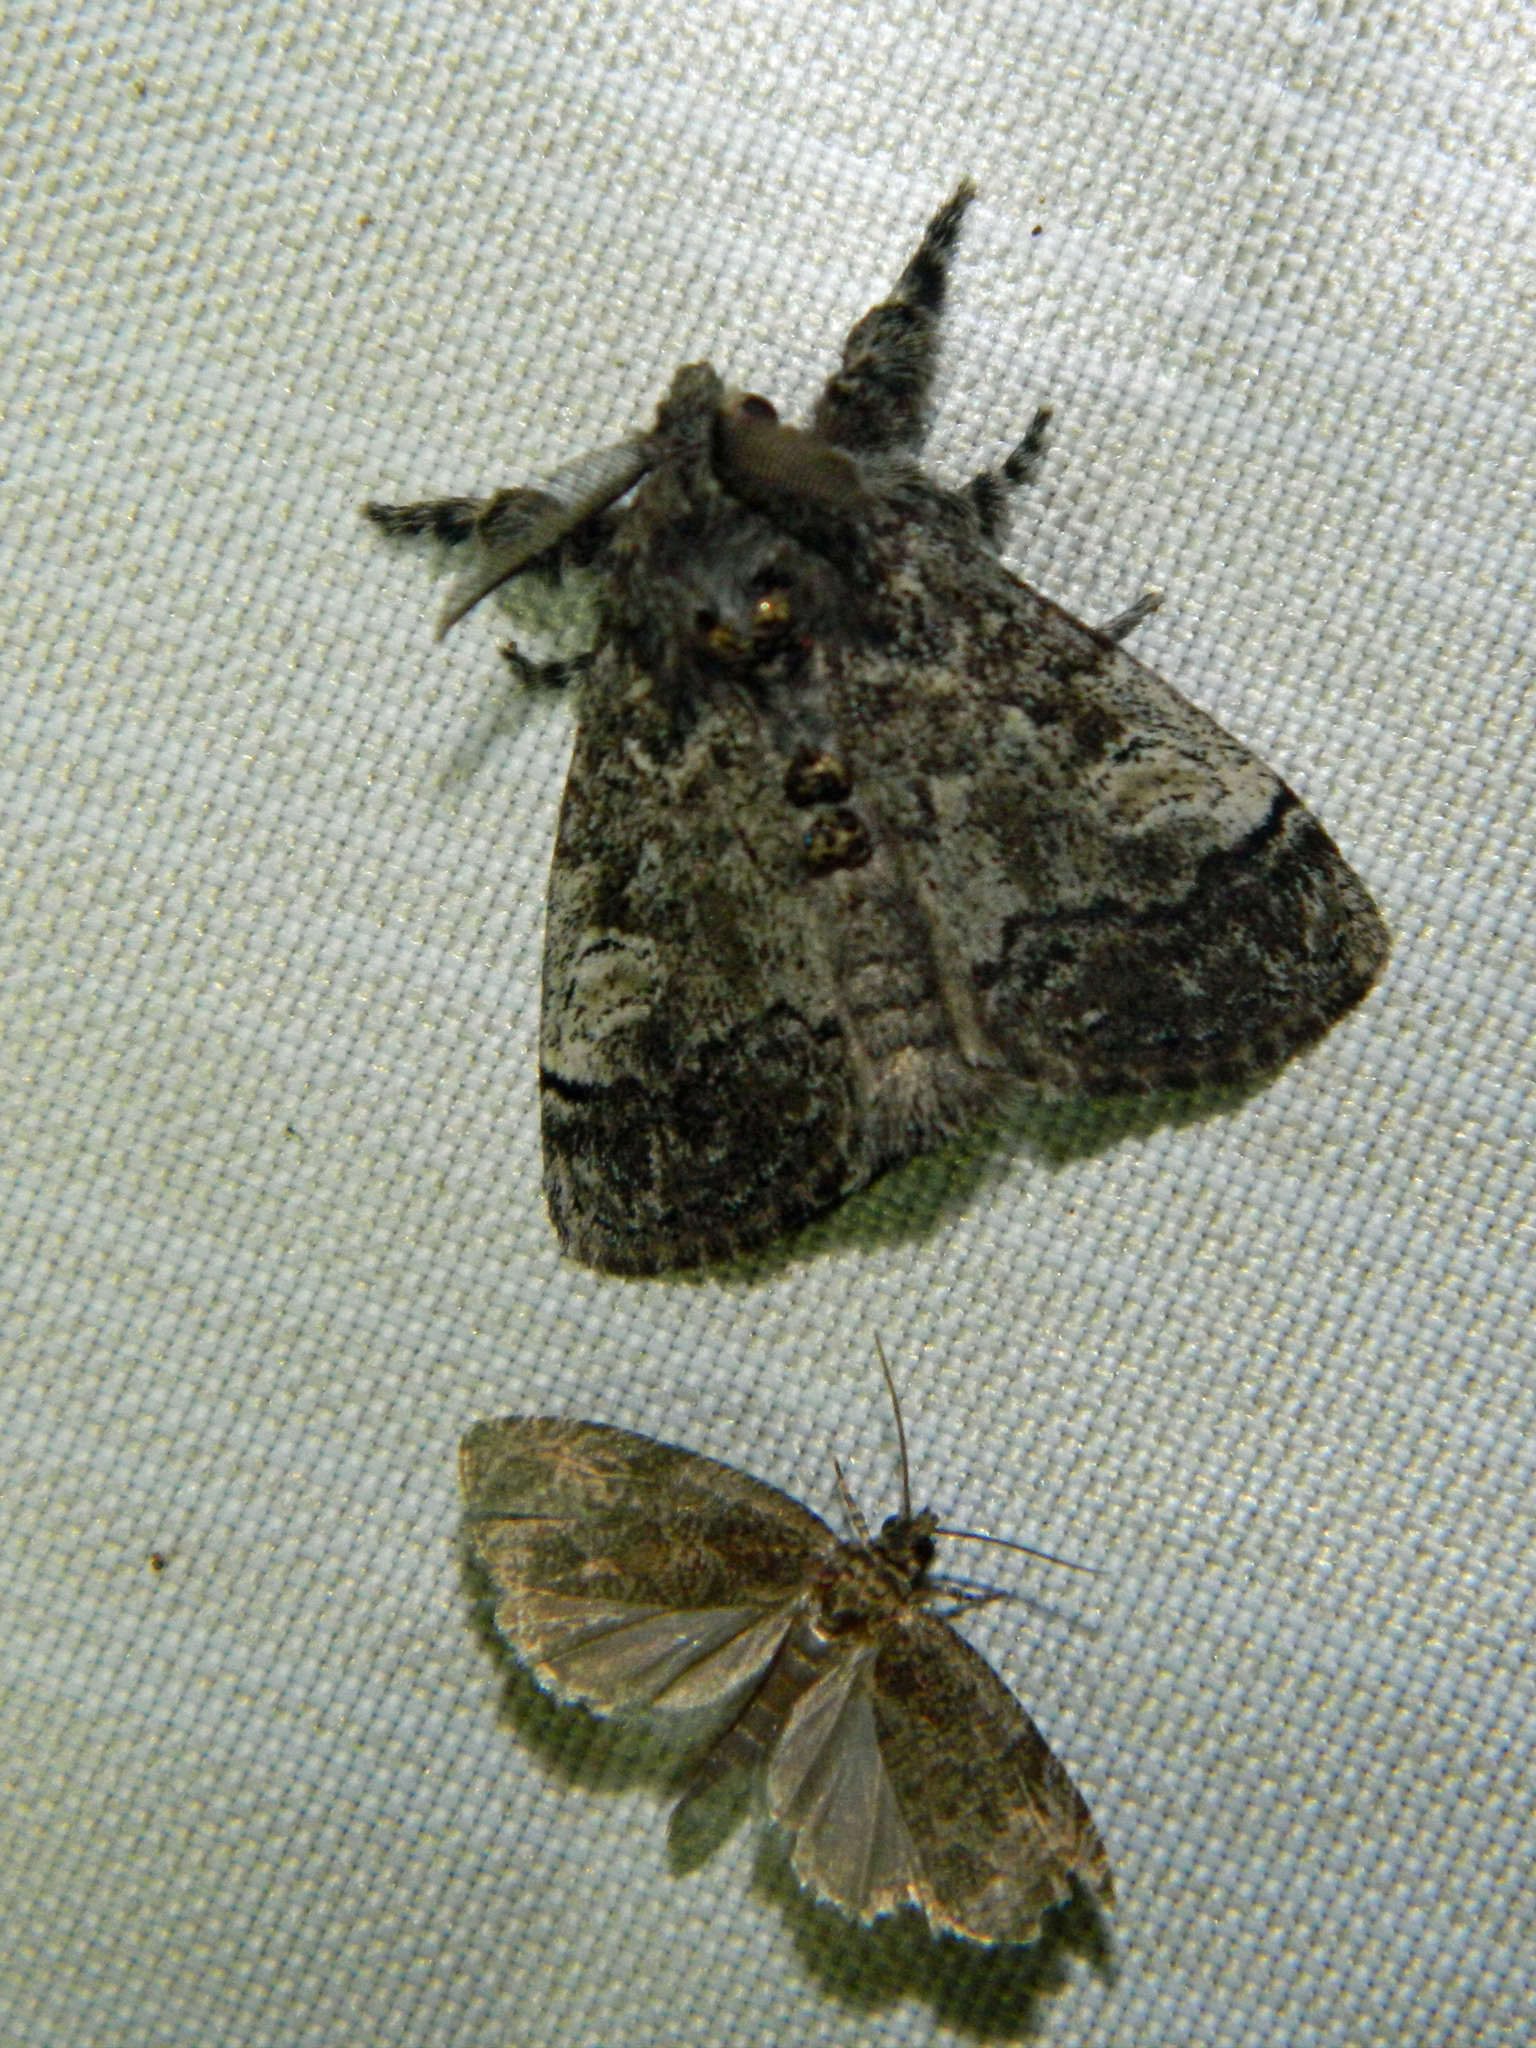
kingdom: Animalia
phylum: Arthropoda
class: Insecta
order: Lepidoptera
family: Erebidae
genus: Dasychira
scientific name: Dasychira vagans
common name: Variable tussock moth
